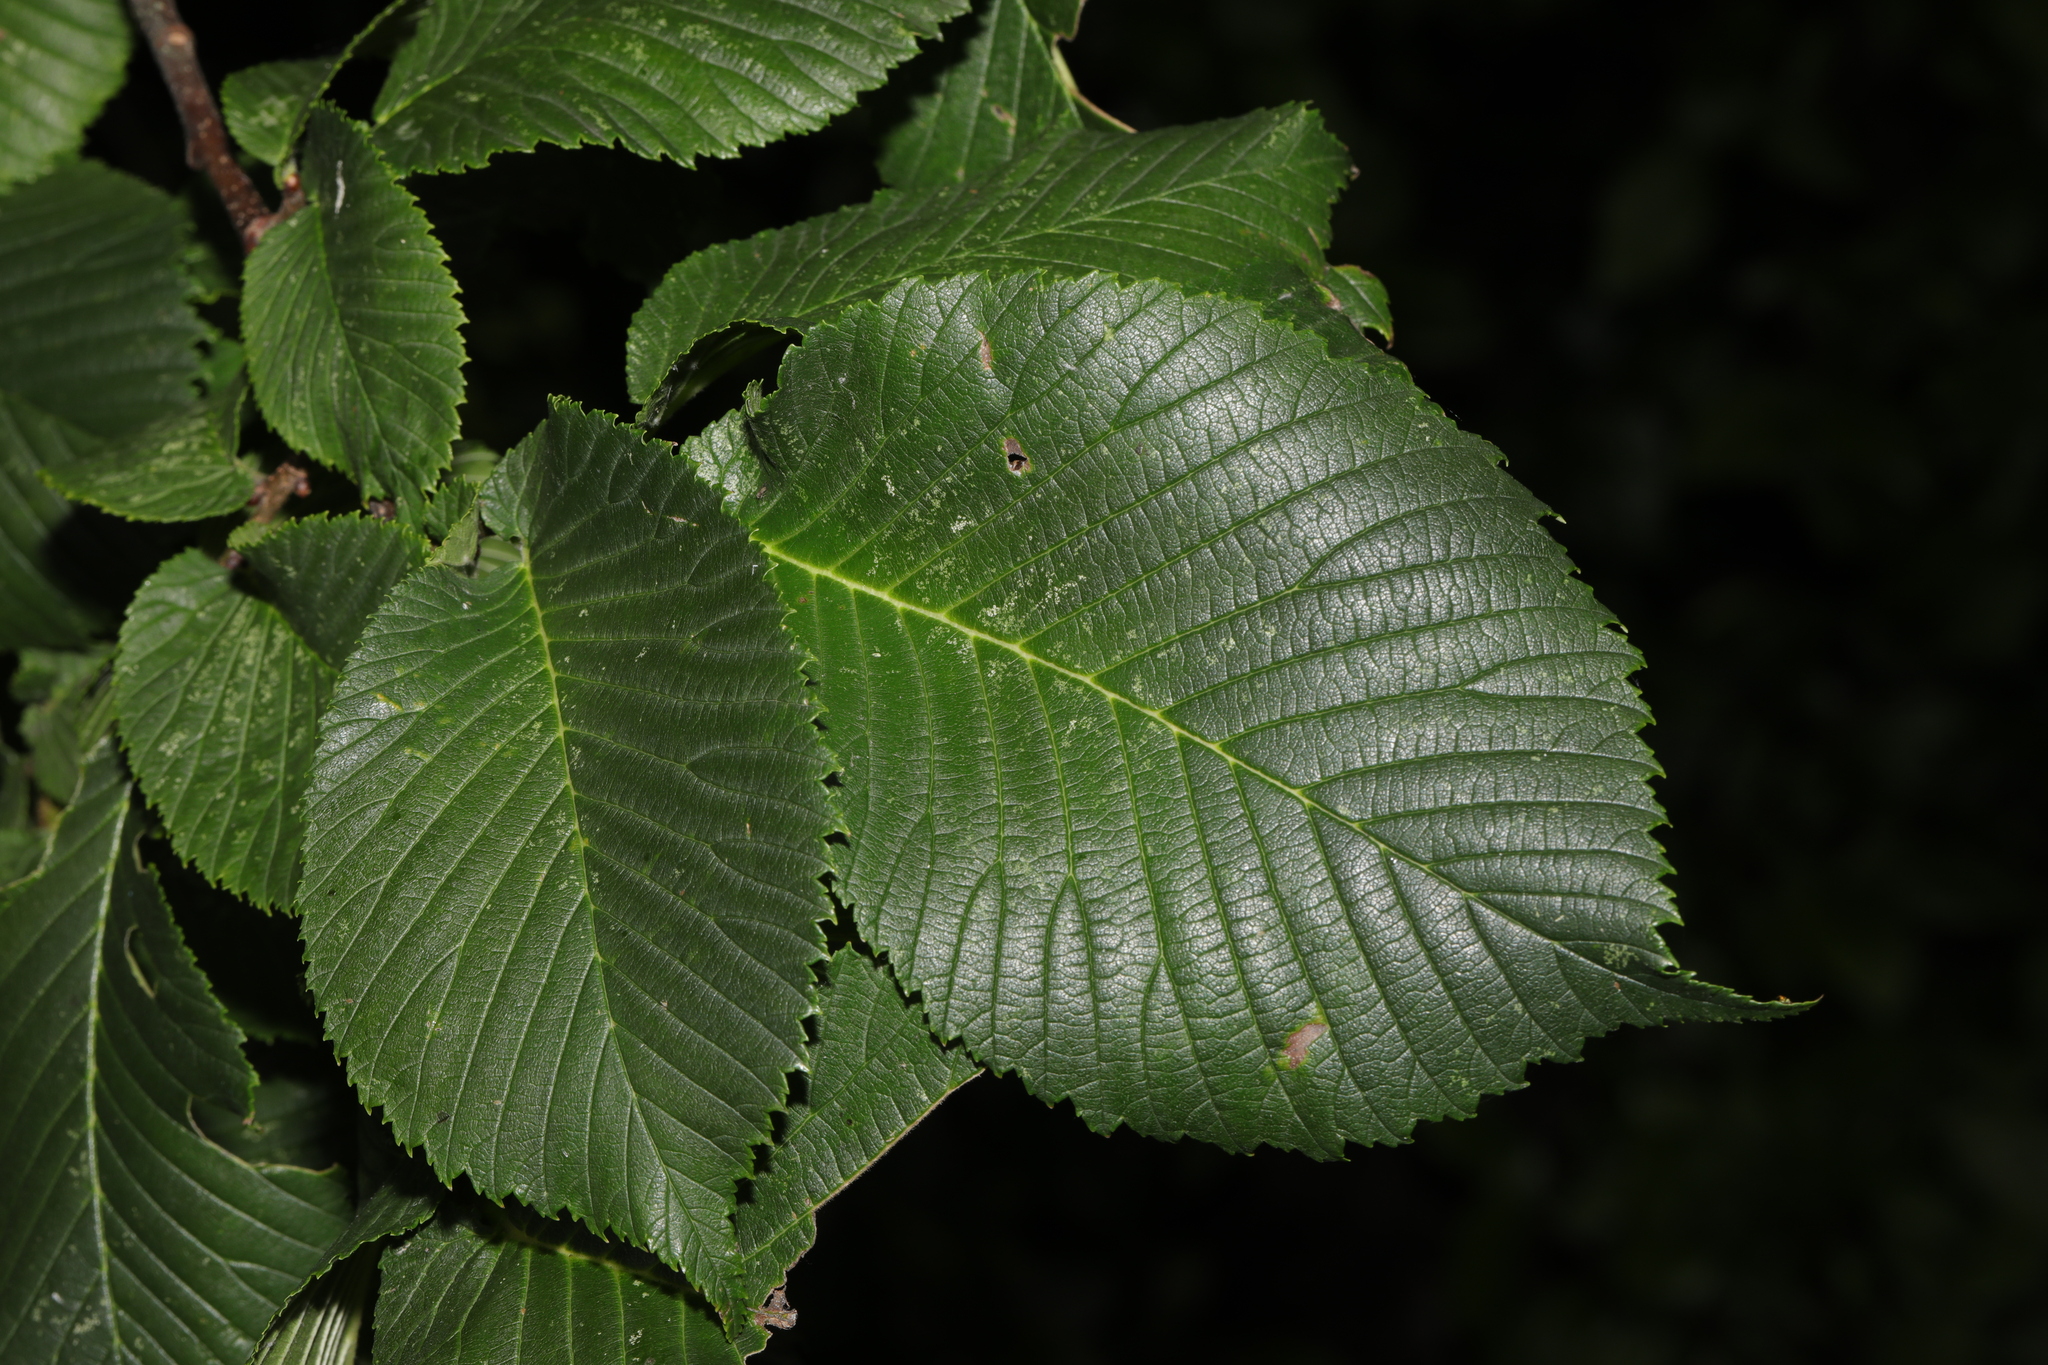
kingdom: Plantae
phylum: Tracheophyta
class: Magnoliopsida
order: Rosales
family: Ulmaceae
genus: Ulmus
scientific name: Ulmus glabra
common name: Wych elm
